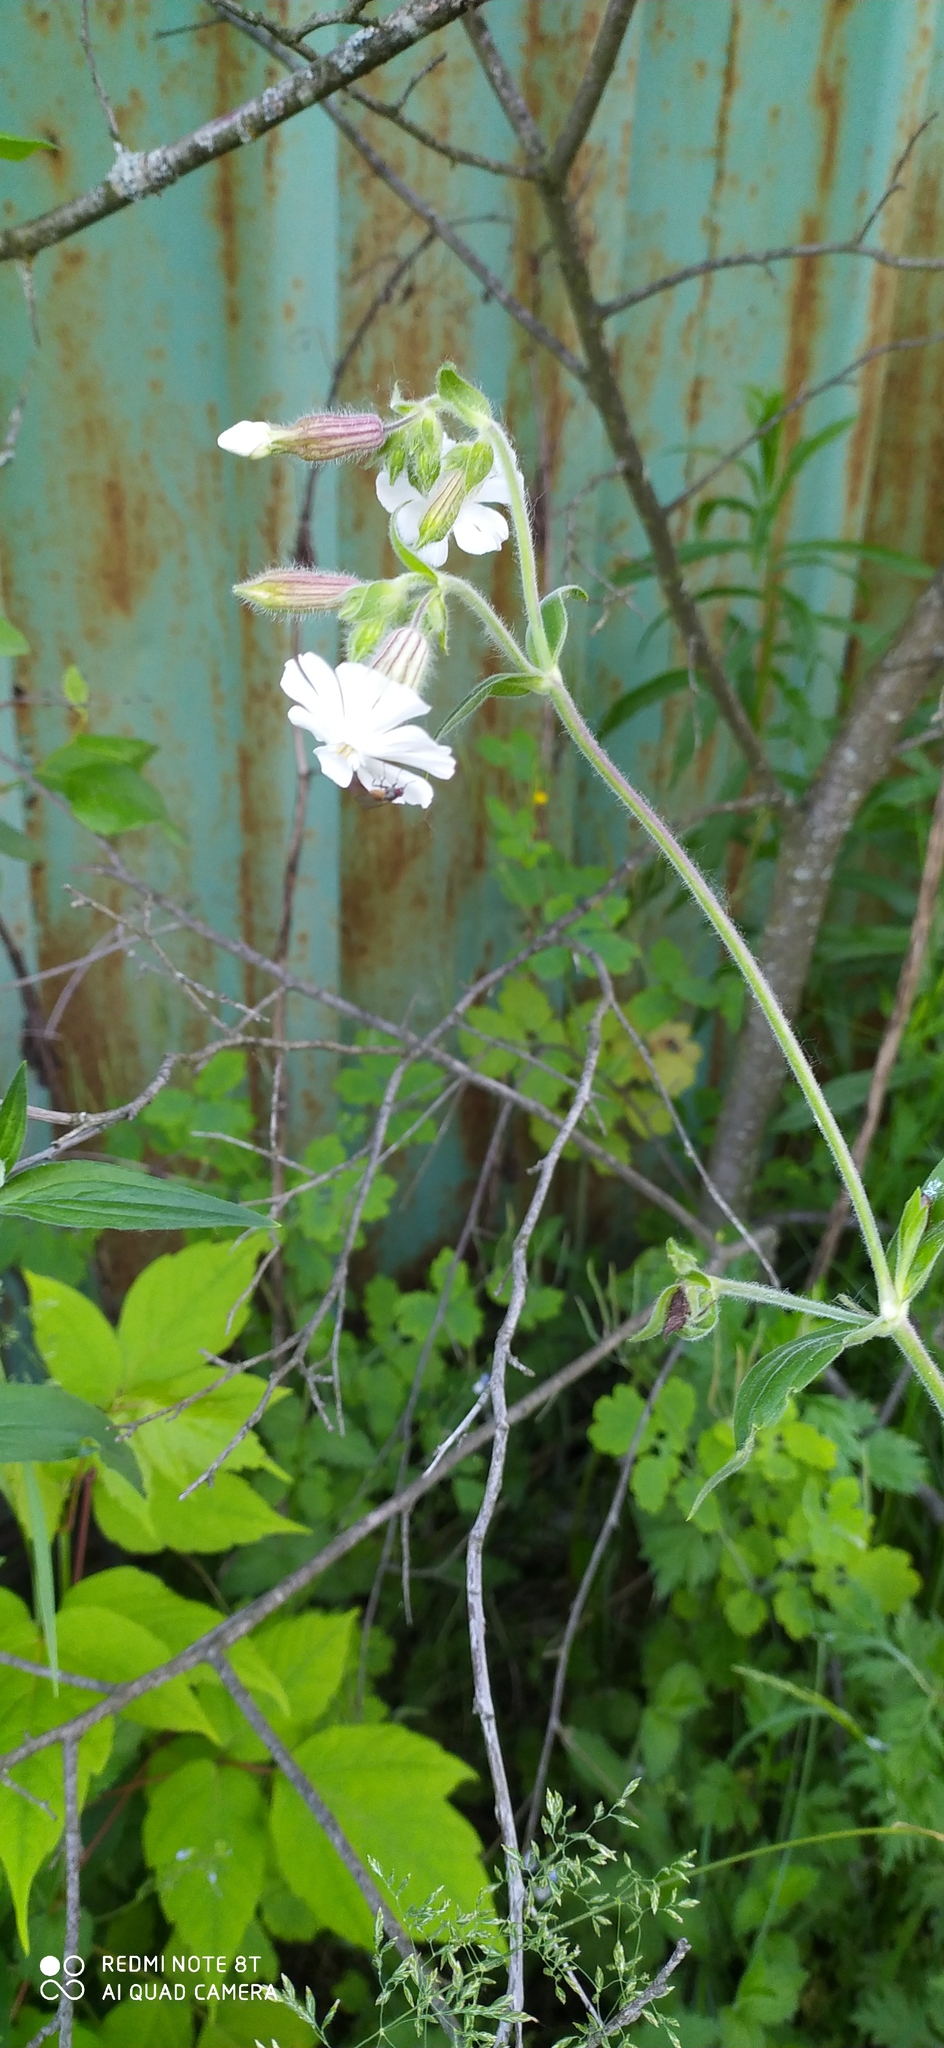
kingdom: Plantae
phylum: Tracheophyta
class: Magnoliopsida
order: Caryophyllales
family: Caryophyllaceae
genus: Silene
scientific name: Silene latifolia
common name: White campion
